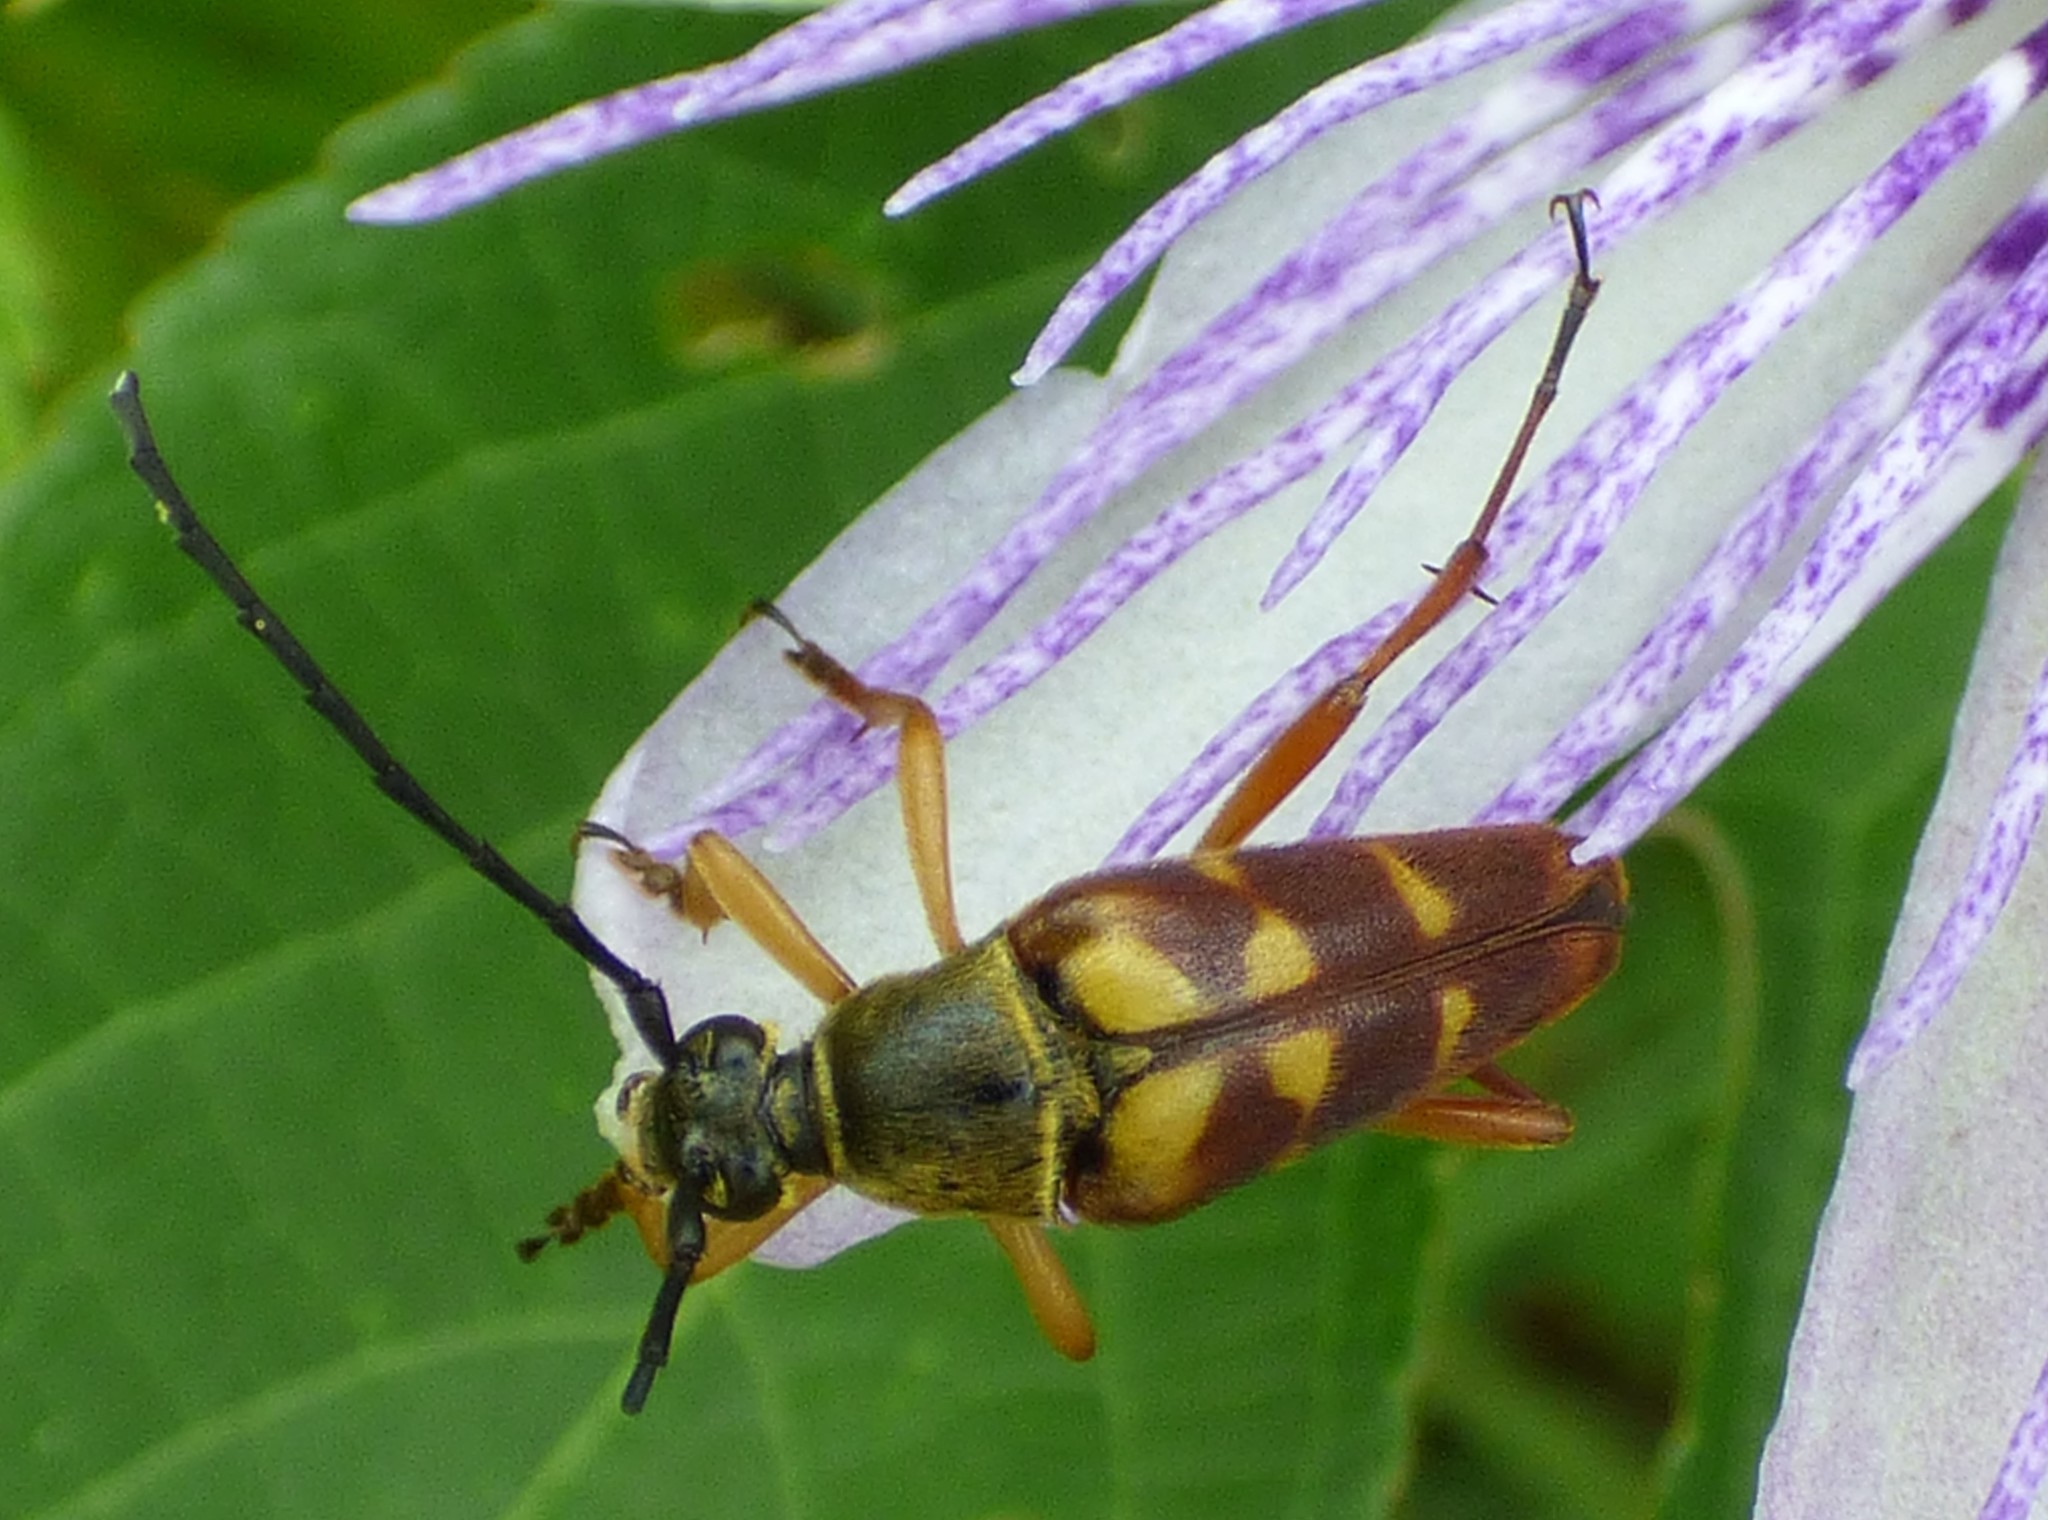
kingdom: Animalia
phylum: Arthropoda
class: Insecta
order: Coleoptera
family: Cerambycidae
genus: Typocerus
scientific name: Typocerus velutinus
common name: Banded longhorn beetle
